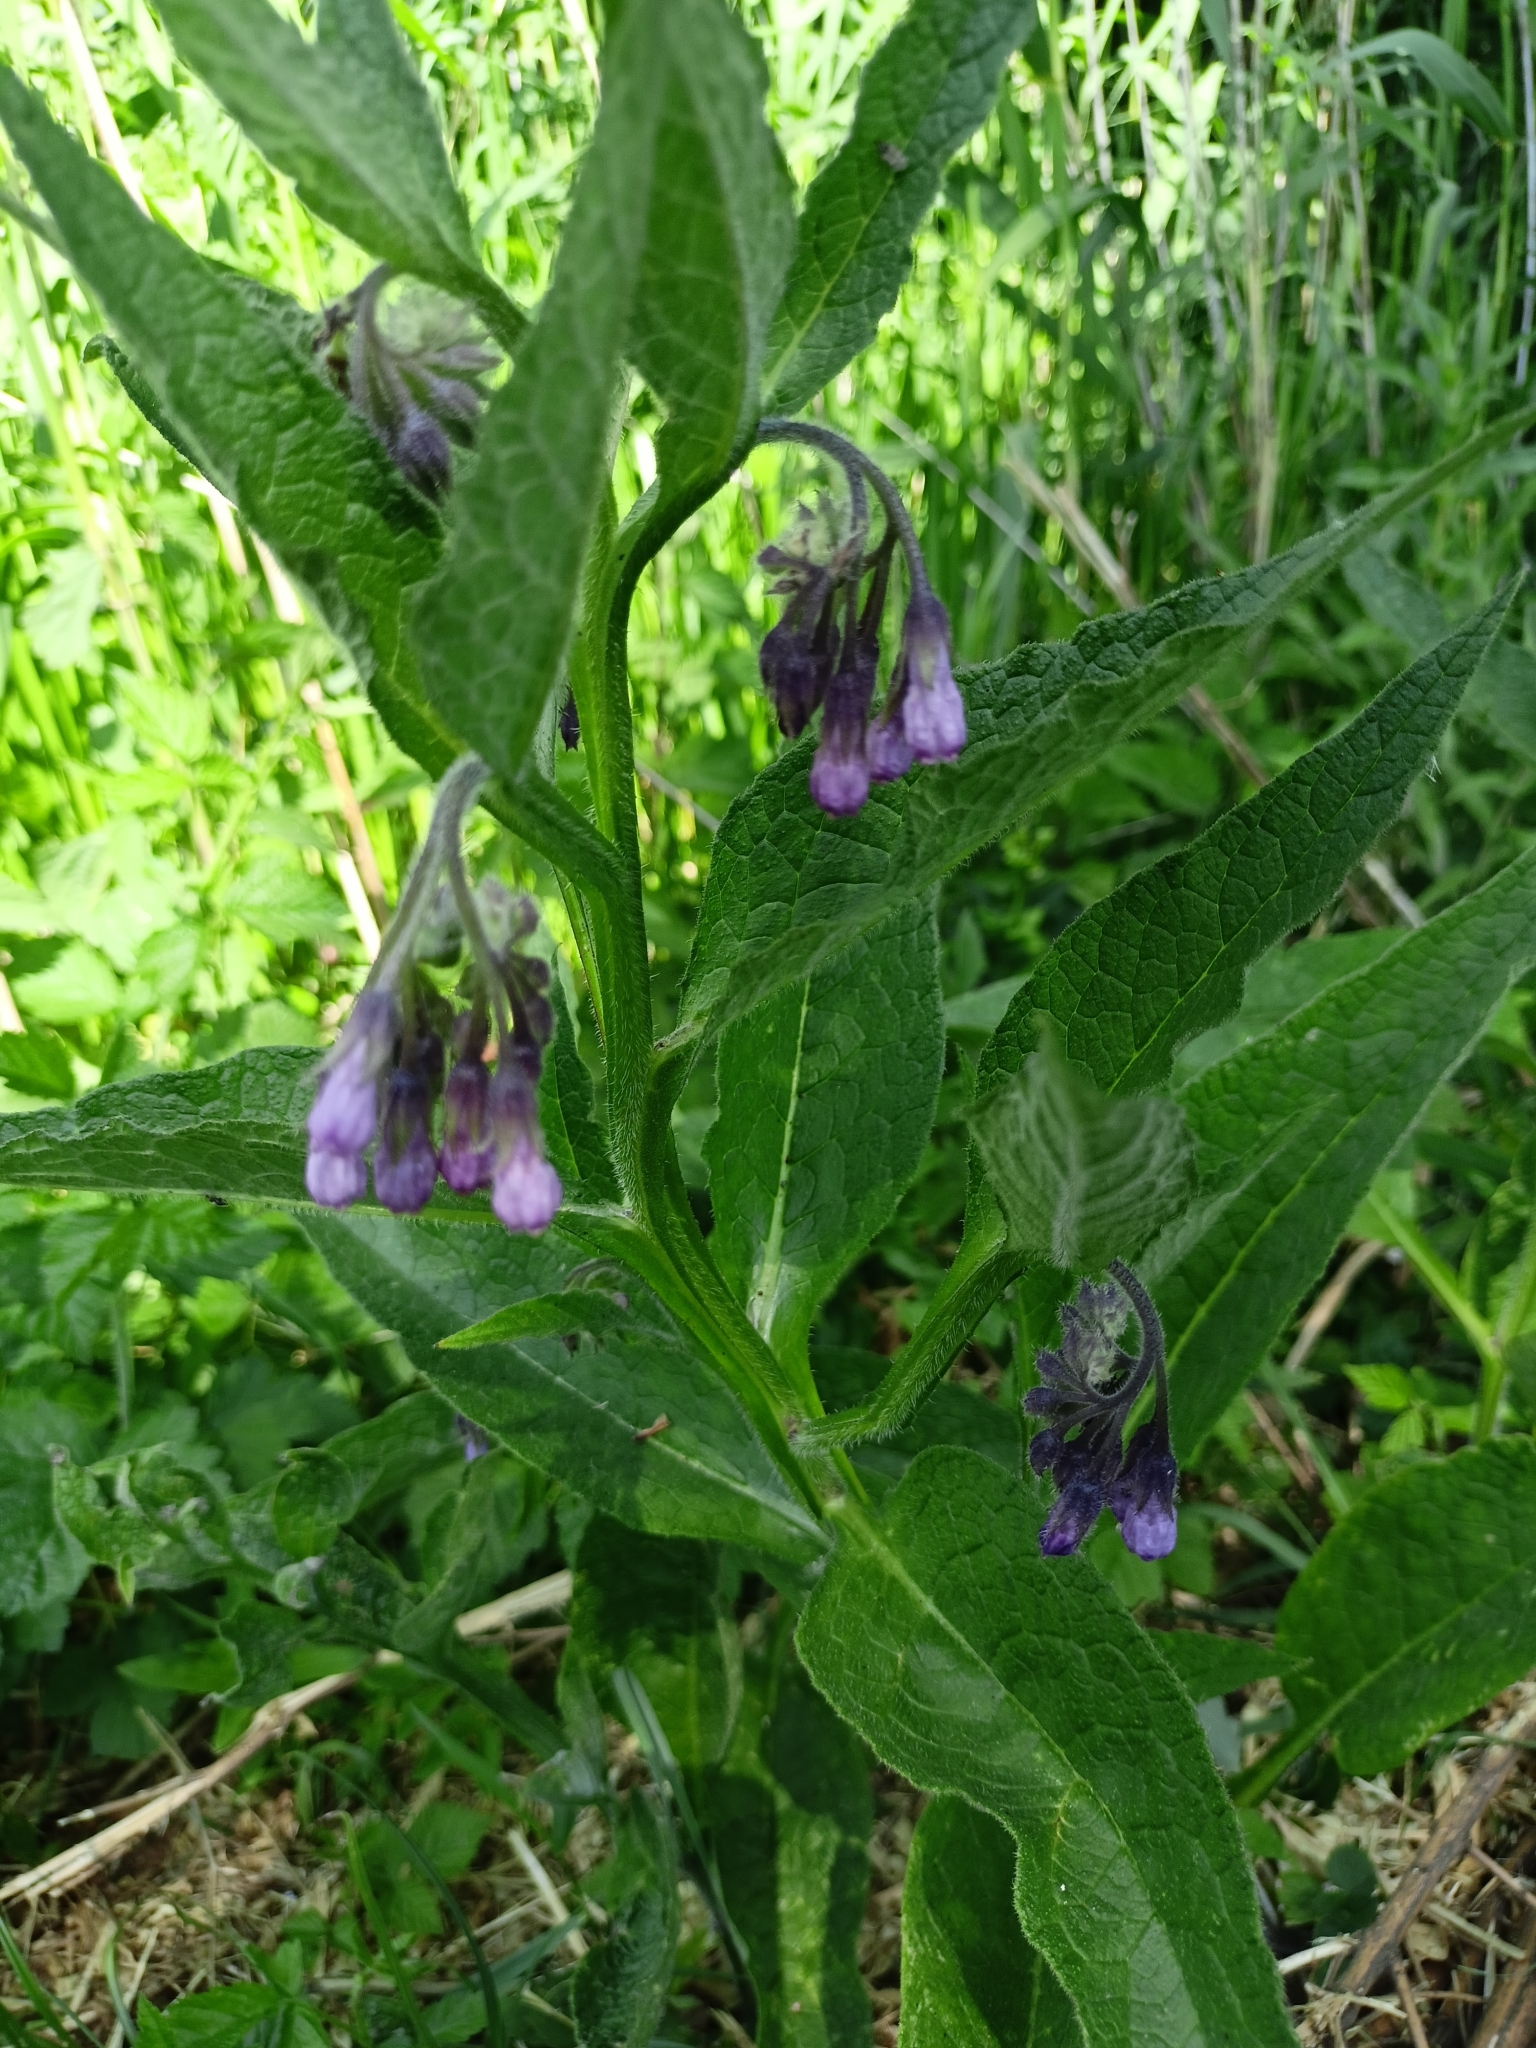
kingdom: Plantae
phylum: Tracheophyta
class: Magnoliopsida
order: Boraginales
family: Boraginaceae
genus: Symphytum
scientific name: Symphytum officinale
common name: Common comfrey
